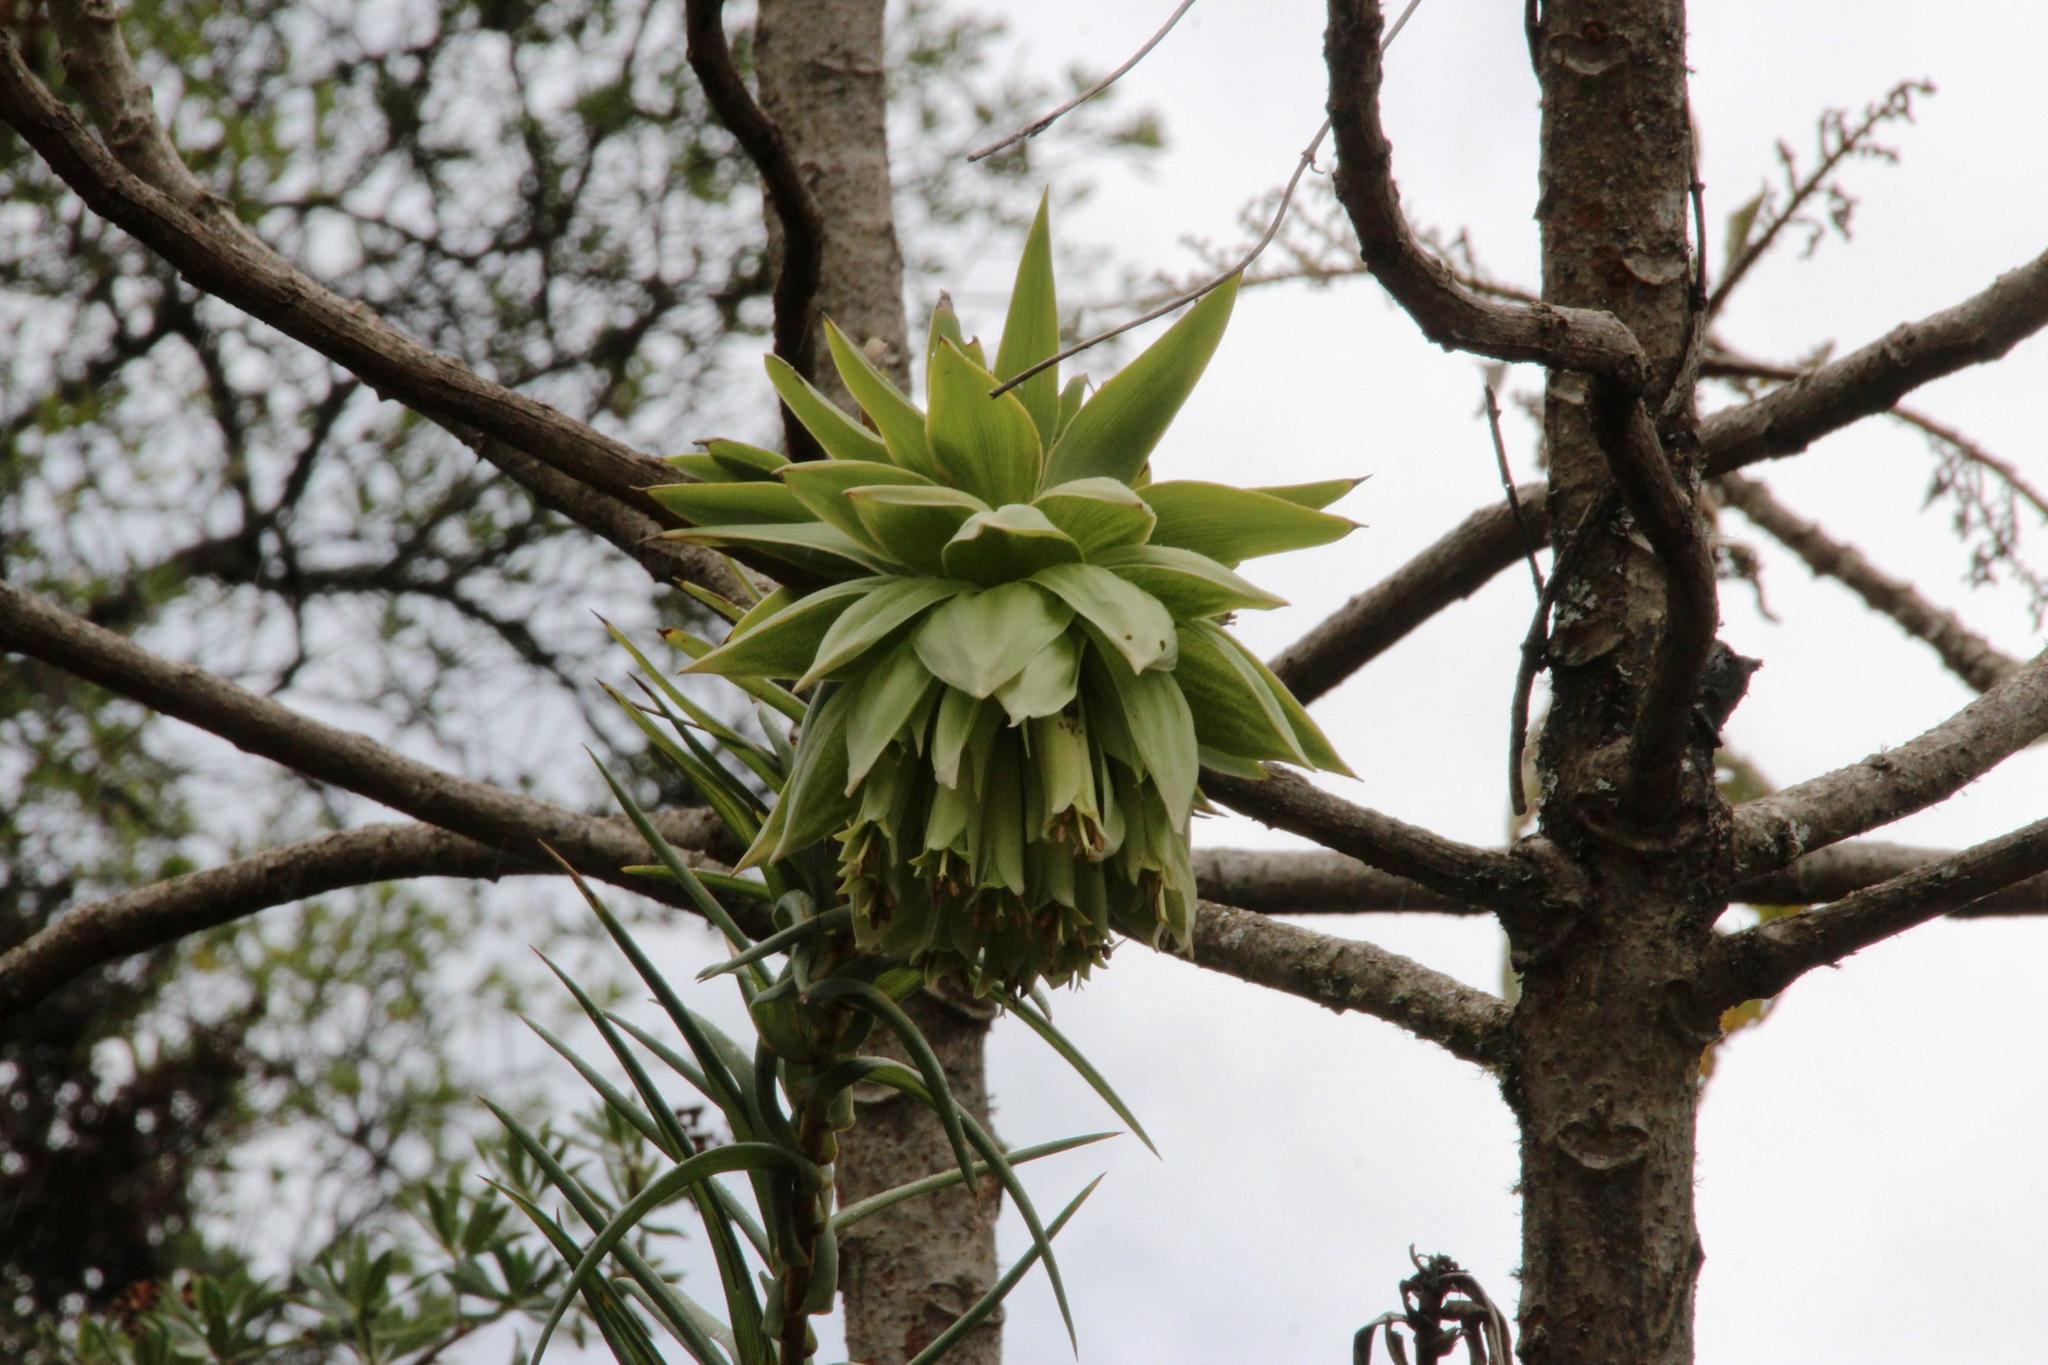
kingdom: Plantae
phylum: Tracheophyta
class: Liliopsida
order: Liliales
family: Alstroemeriaceae
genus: Bomarea
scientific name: Bomarea involucrosa
